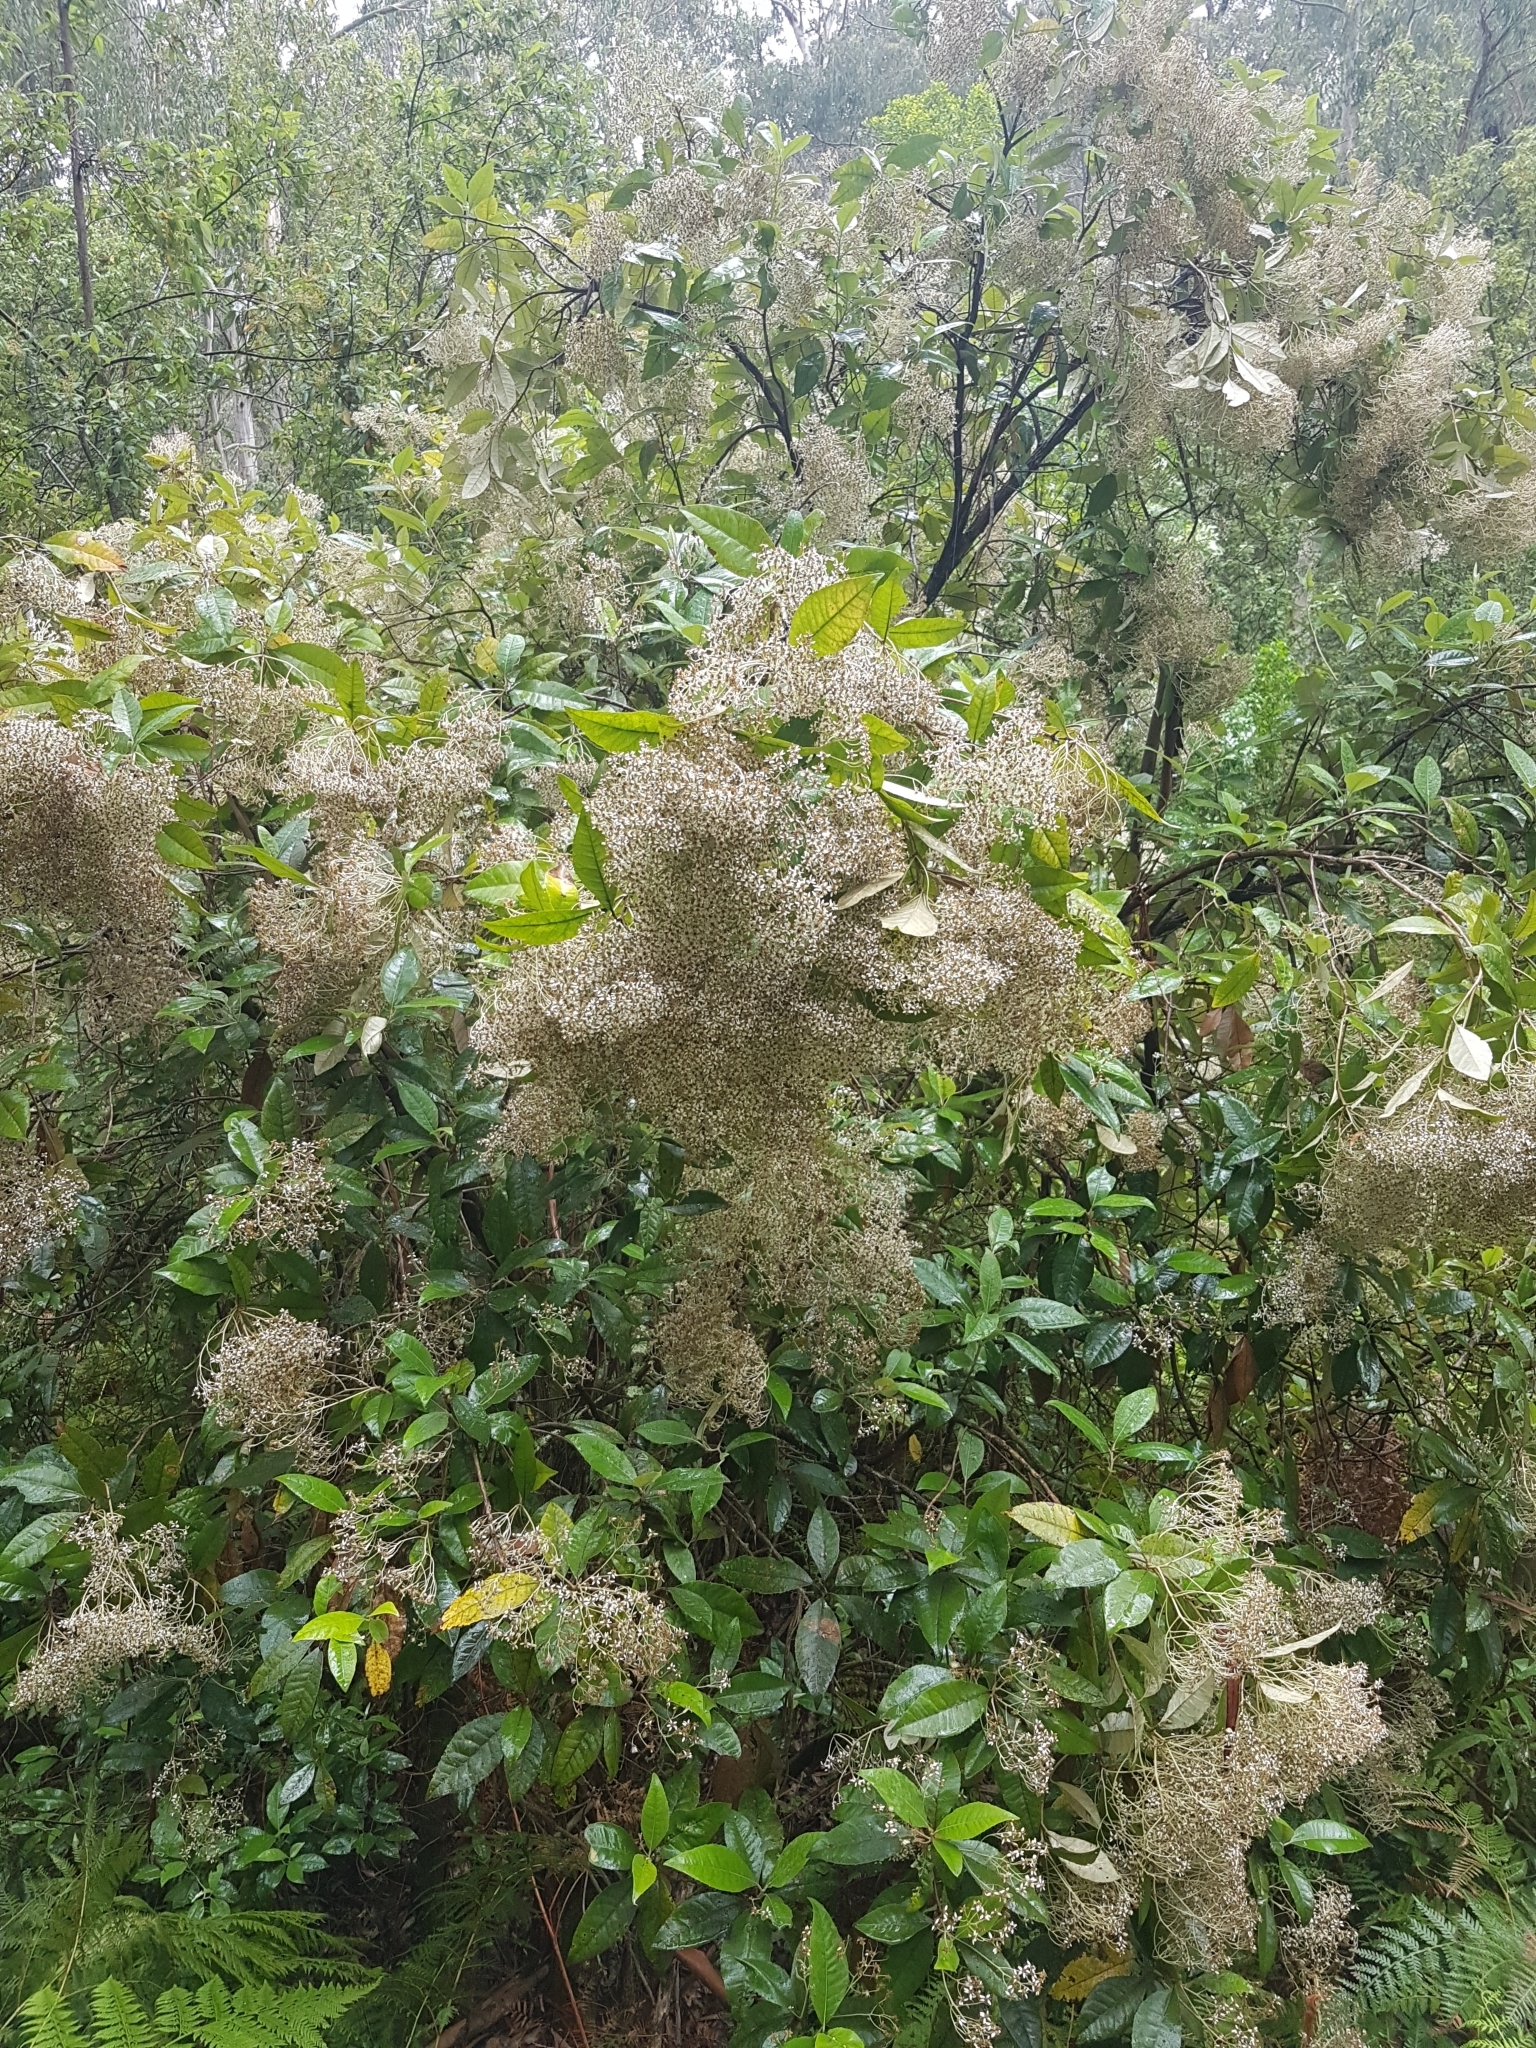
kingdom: Plantae
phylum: Tracheophyta
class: Magnoliopsida
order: Asterales
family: Asteraceae
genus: Olearia
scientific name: Olearia argophylla
